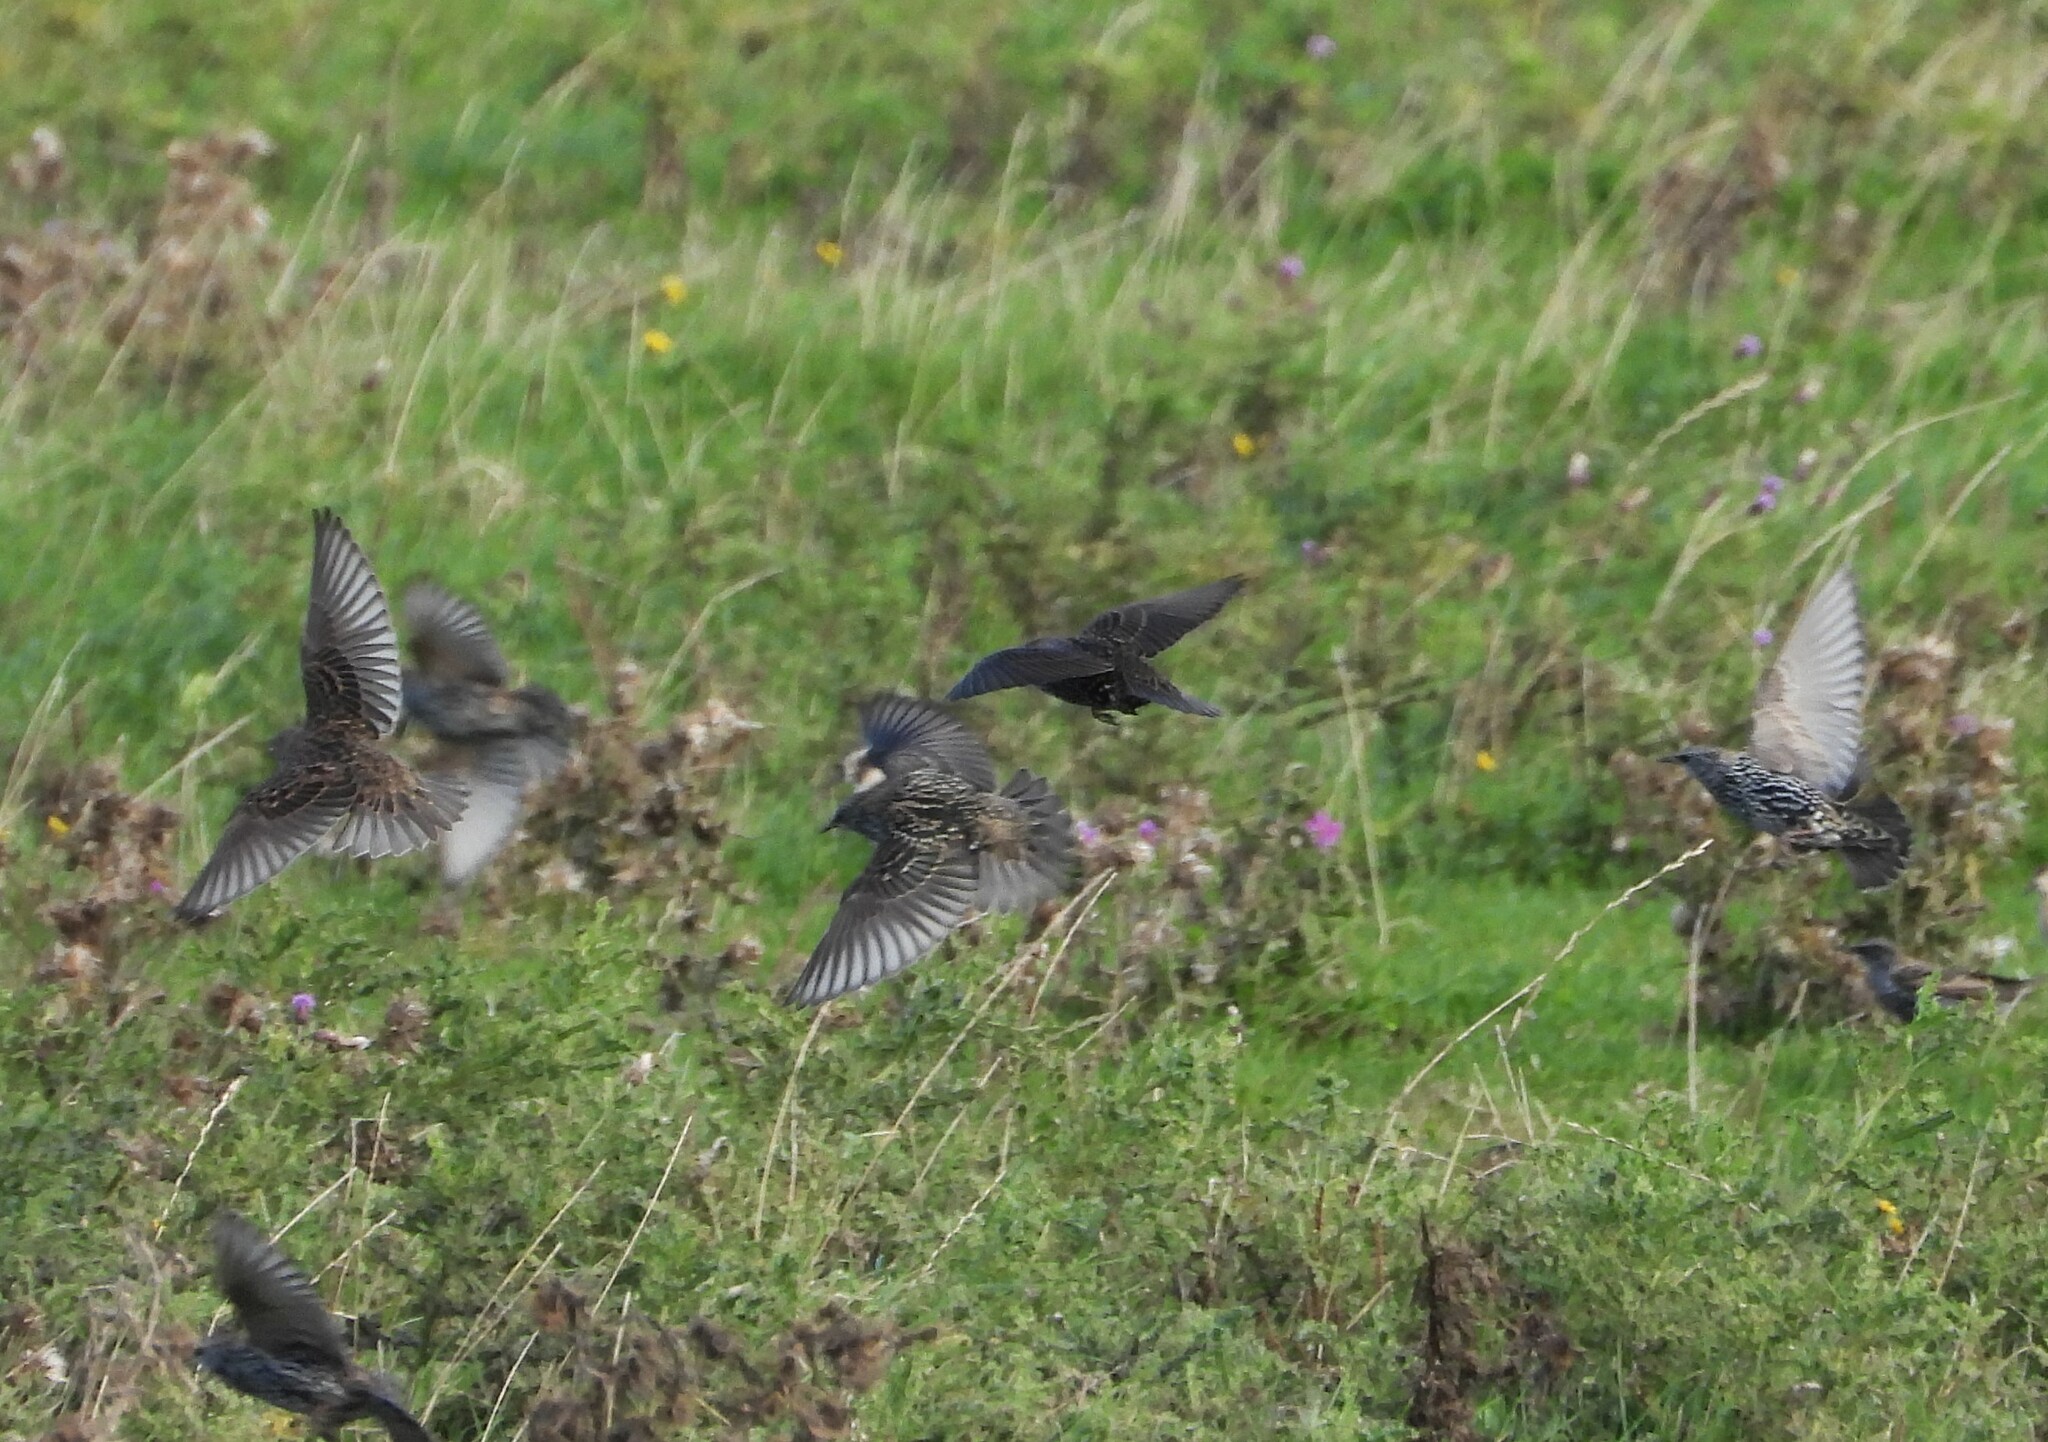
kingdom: Animalia
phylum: Chordata
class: Aves
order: Passeriformes
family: Sturnidae
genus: Sturnus
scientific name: Sturnus vulgaris
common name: Common starling
